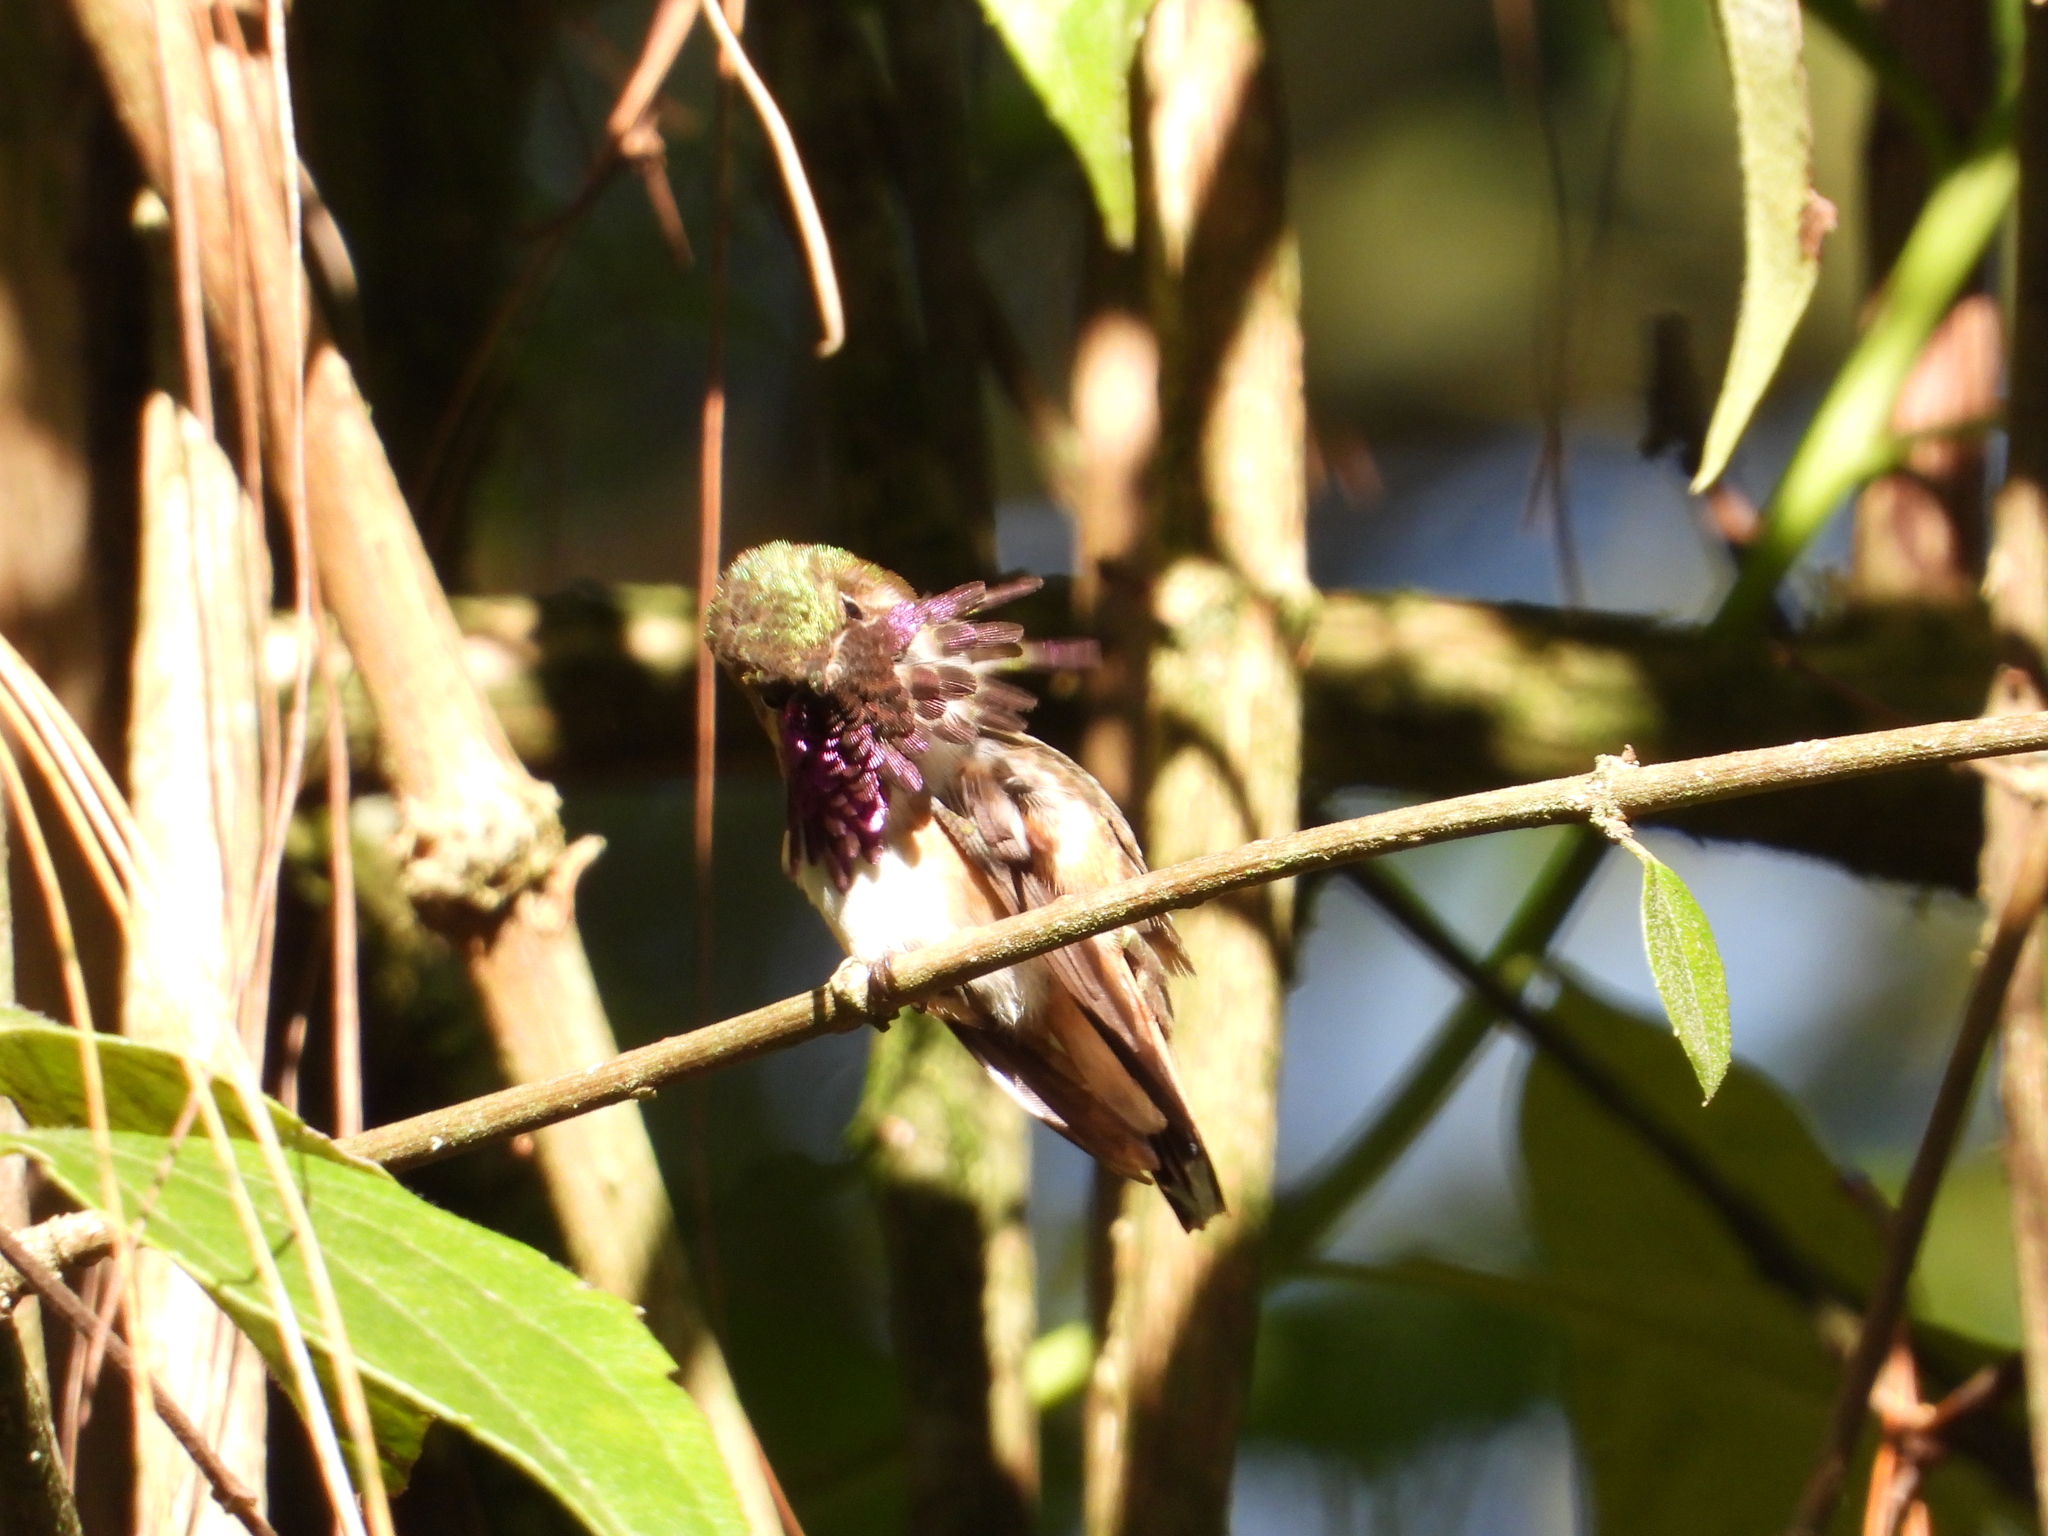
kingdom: Animalia
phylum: Chordata
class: Aves
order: Apodiformes
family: Trochilidae
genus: Selasphorus
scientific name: Selasphorus heloisa
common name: Bumblebee hummingbird
